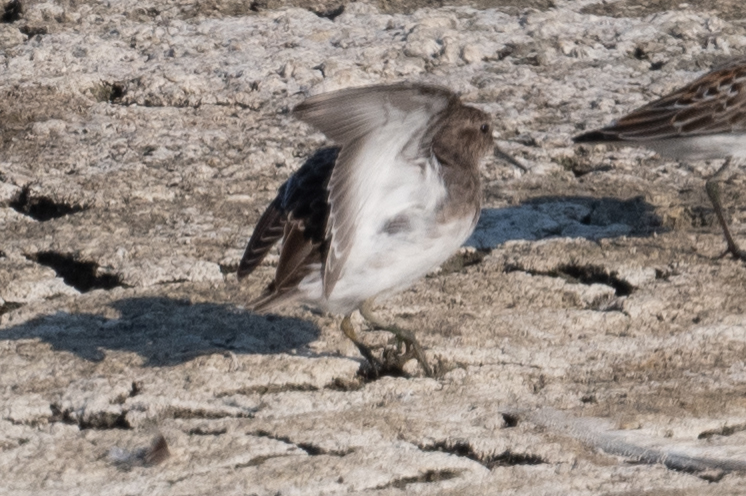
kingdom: Animalia
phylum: Chordata
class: Aves
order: Charadriiformes
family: Scolopacidae
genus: Calidris
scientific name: Calidris minutilla
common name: Least sandpiper
